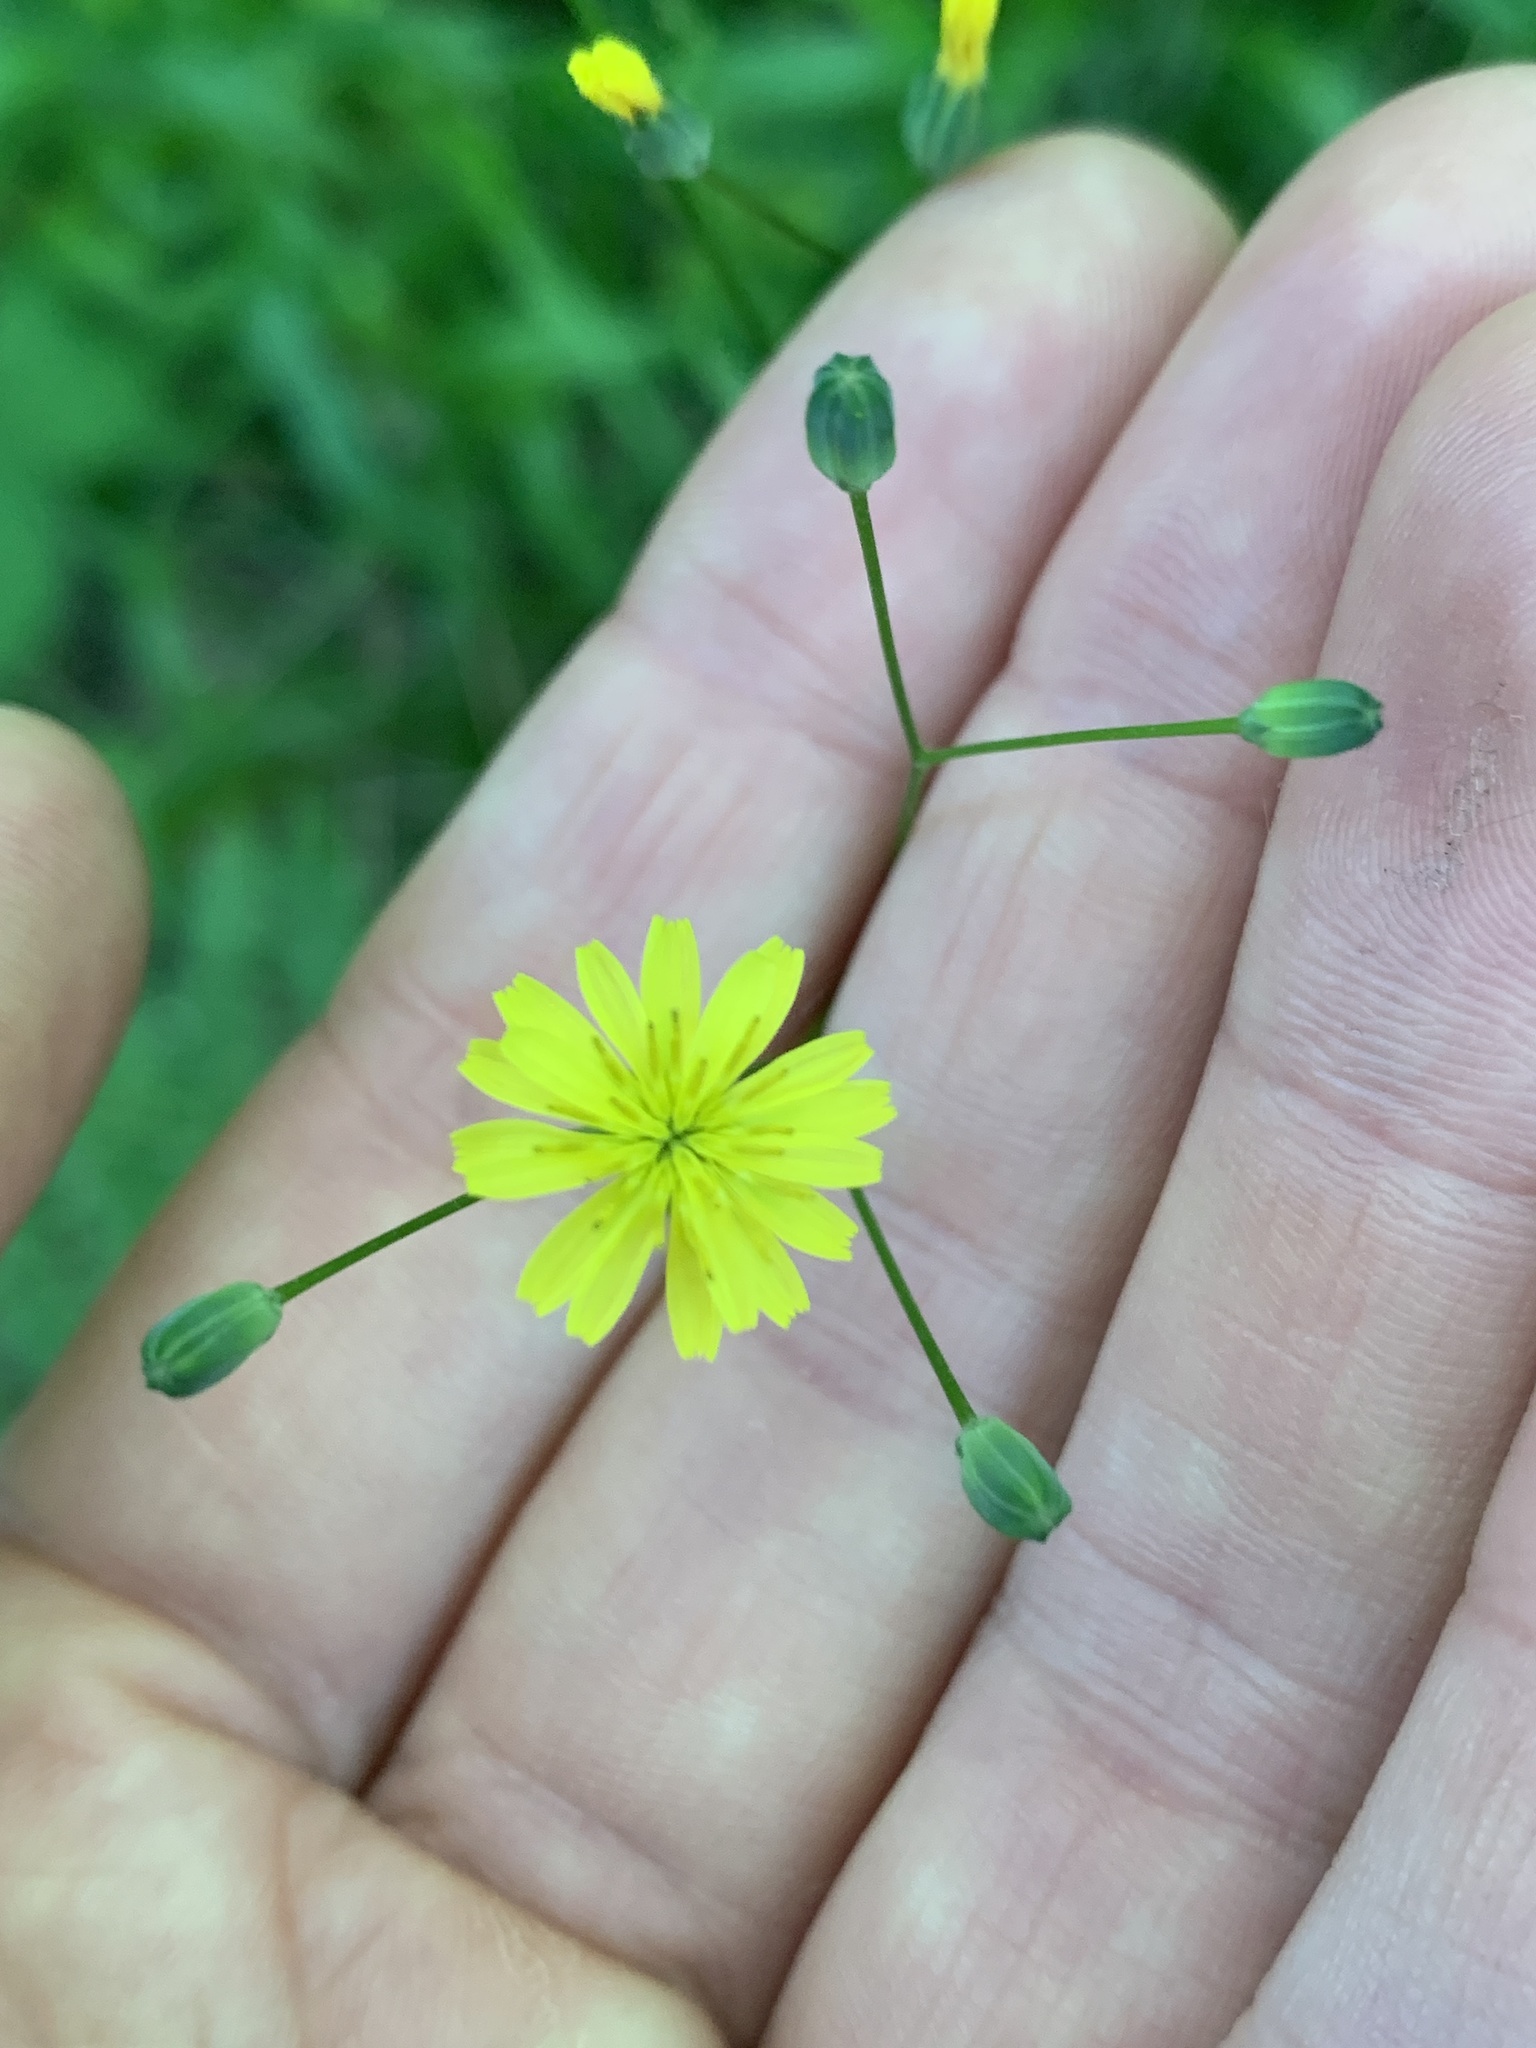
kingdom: Plantae
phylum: Tracheophyta
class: Magnoliopsida
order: Asterales
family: Asteraceae
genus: Lapsana
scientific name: Lapsana communis
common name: Nipplewort
